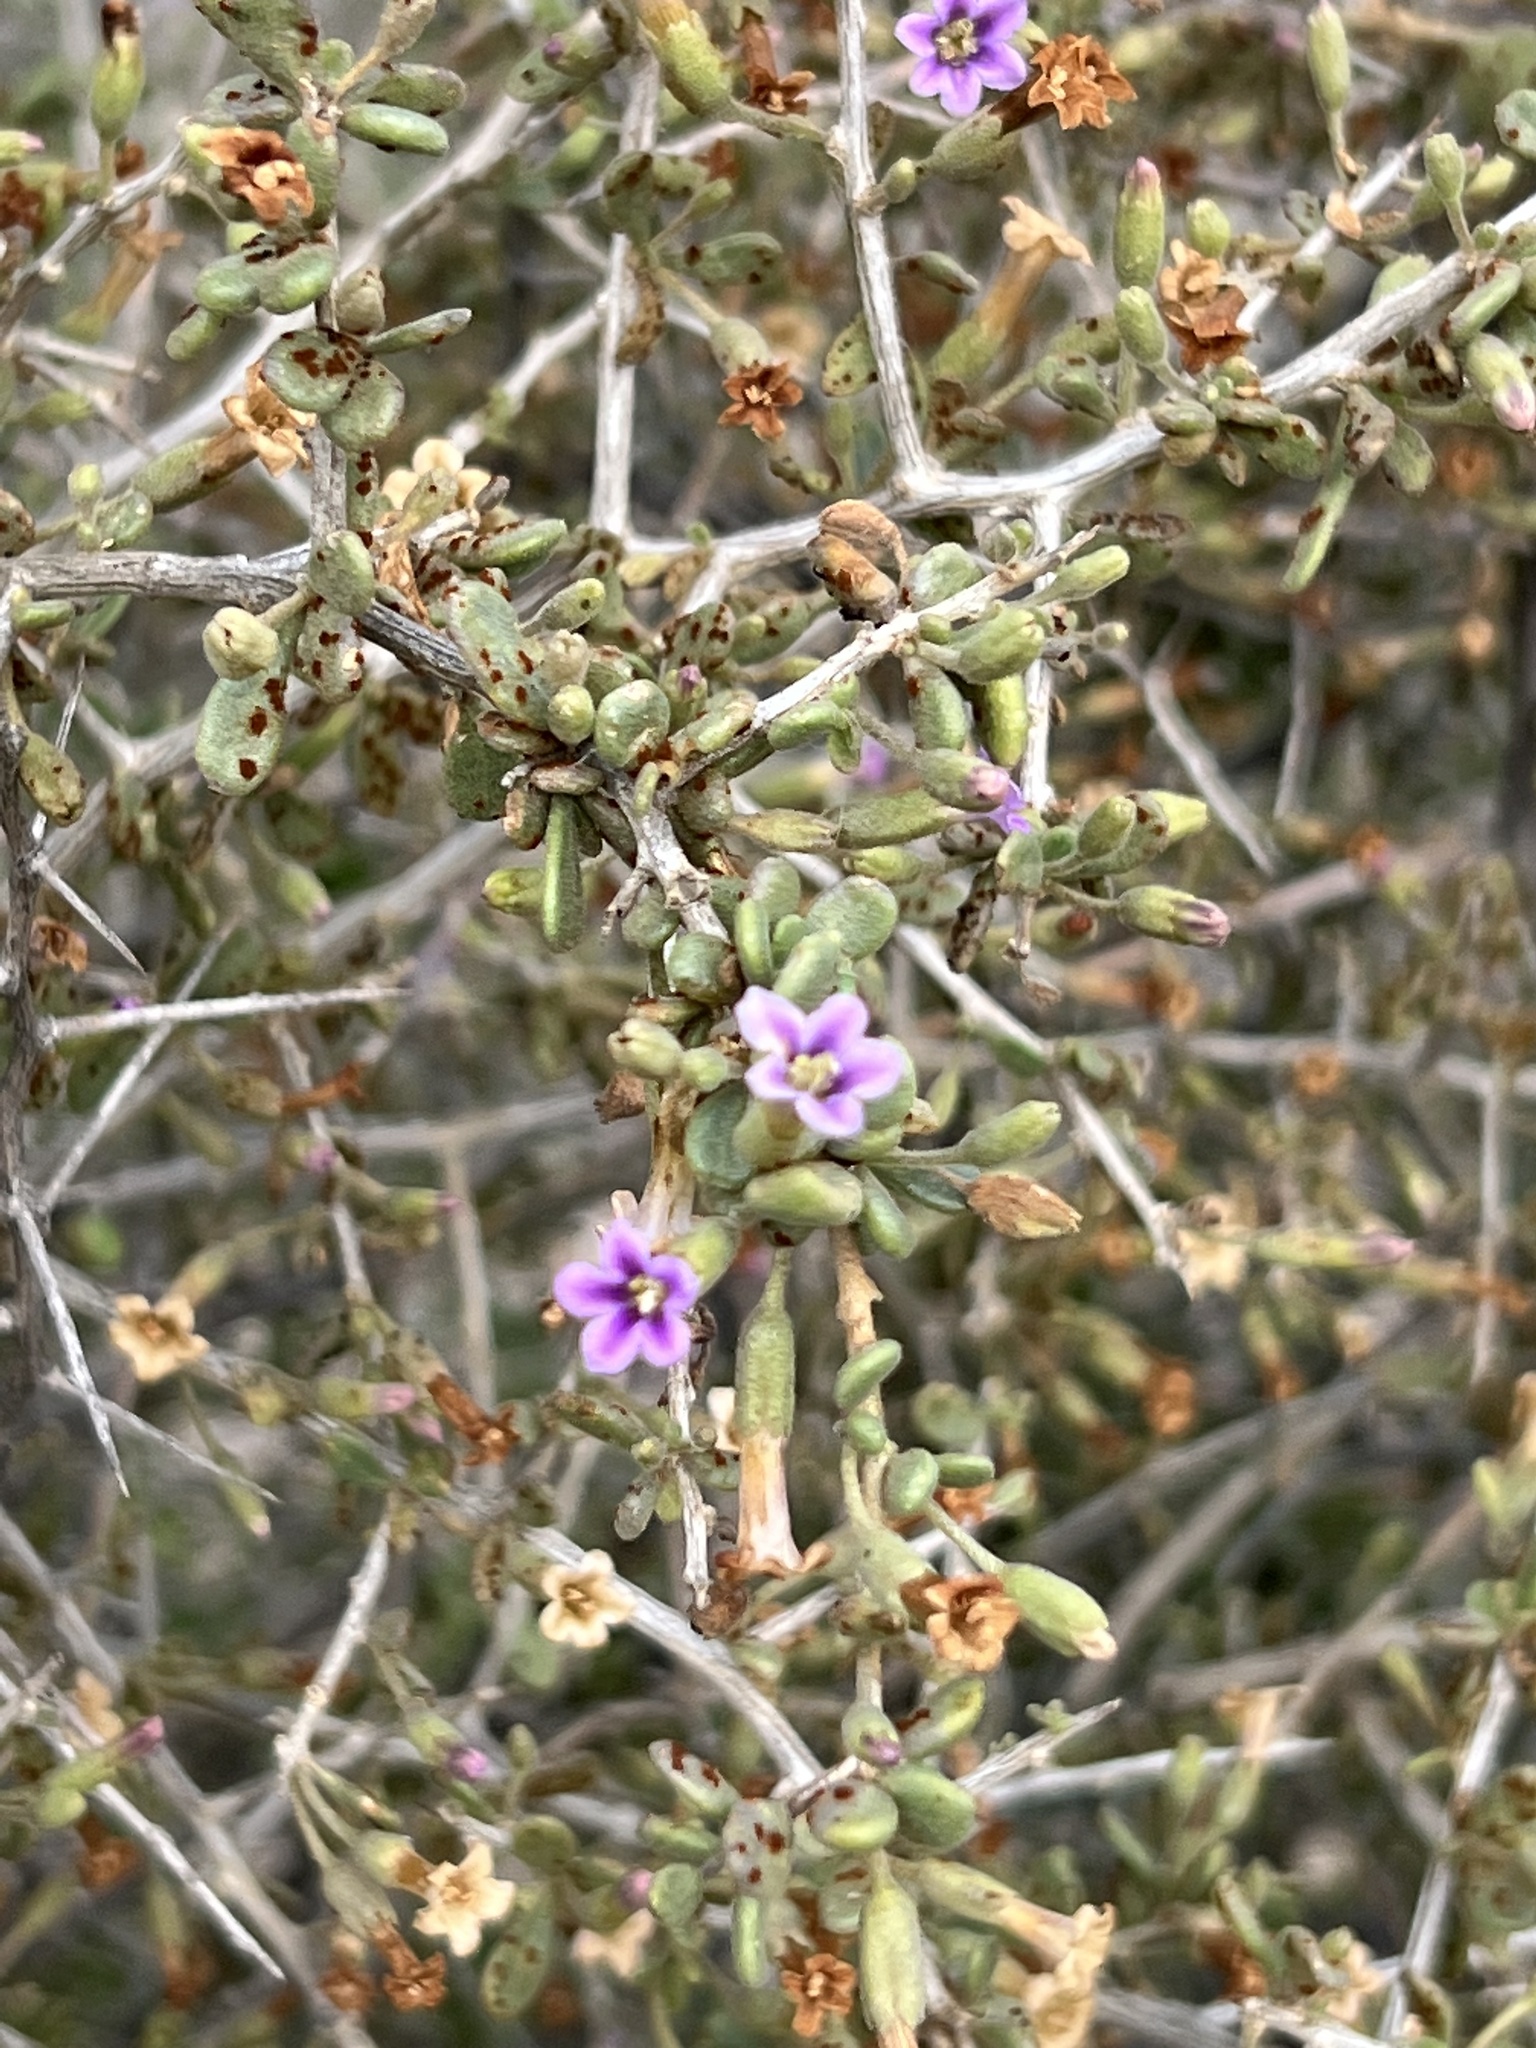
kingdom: Plantae
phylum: Tracheophyta
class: Magnoliopsida
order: Solanales
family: Solanaceae
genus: Lycium
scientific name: Lycium fremontii
